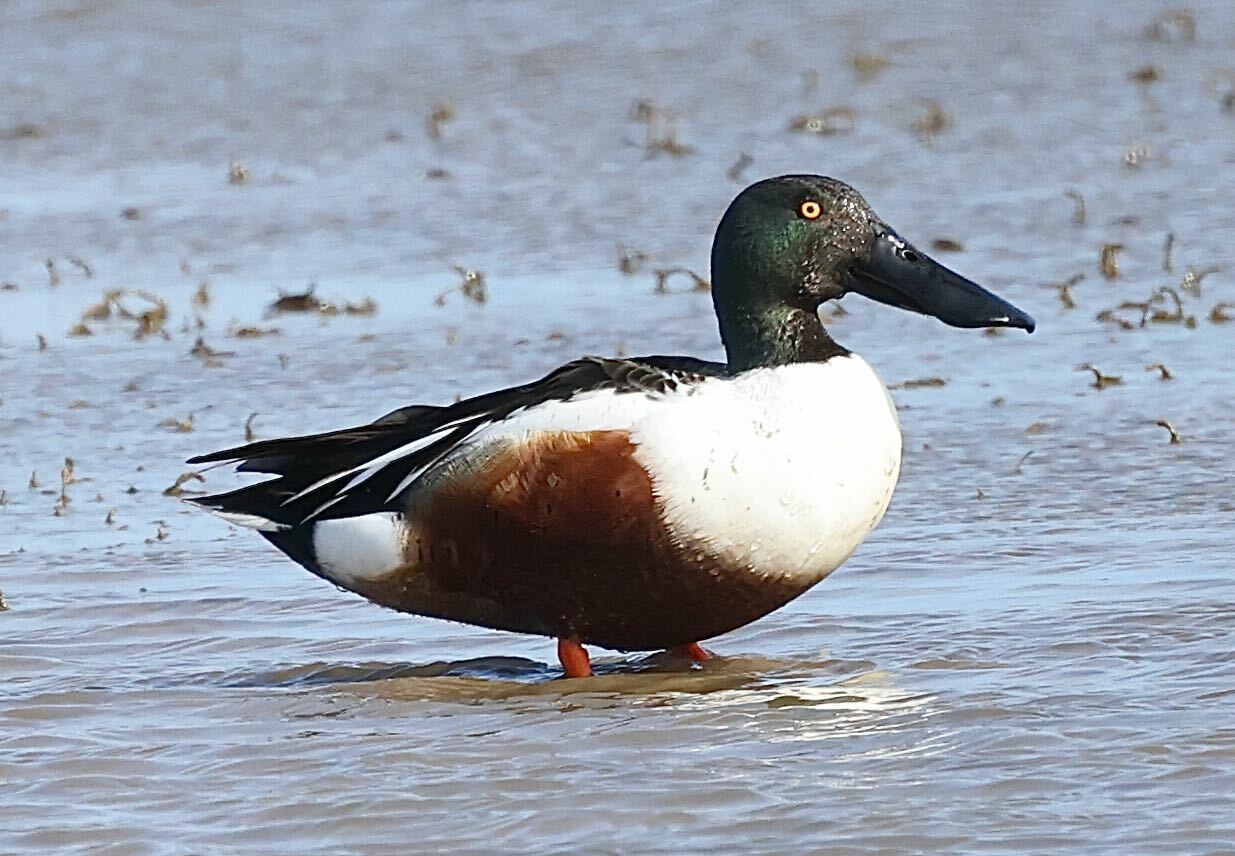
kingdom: Animalia
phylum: Chordata
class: Aves
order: Anseriformes
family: Anatidae
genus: Spatula
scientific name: Spatula clypeata
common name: Northern shoveler
